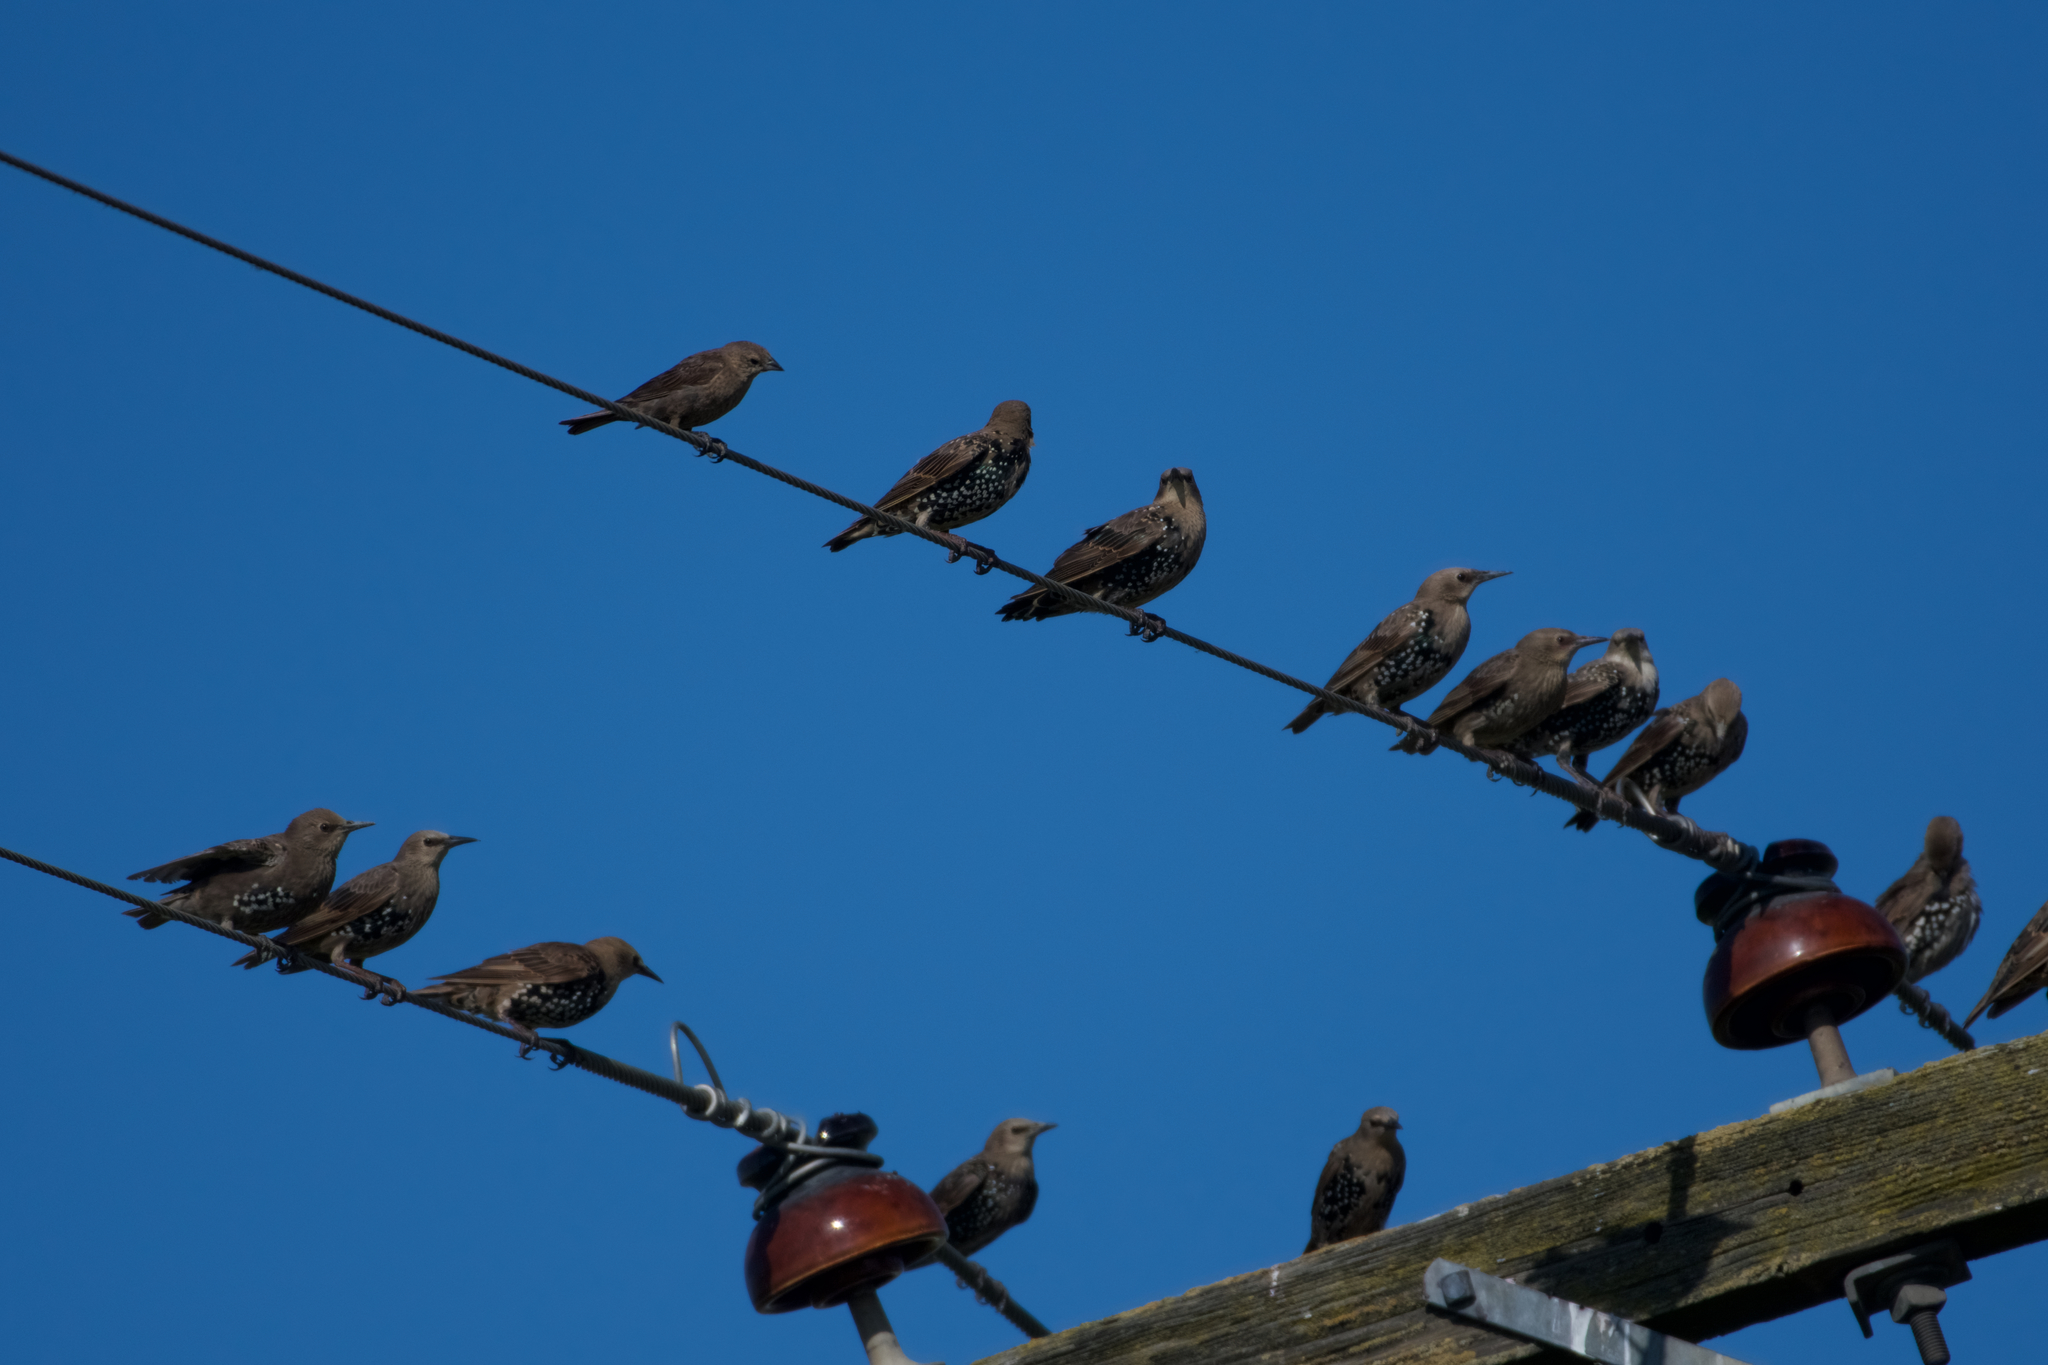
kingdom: Animalia
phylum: Chordata
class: Aves
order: Passeriformes
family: Sturnidae
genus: Sturnus
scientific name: Sturnus vulgaris
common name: Common starling
